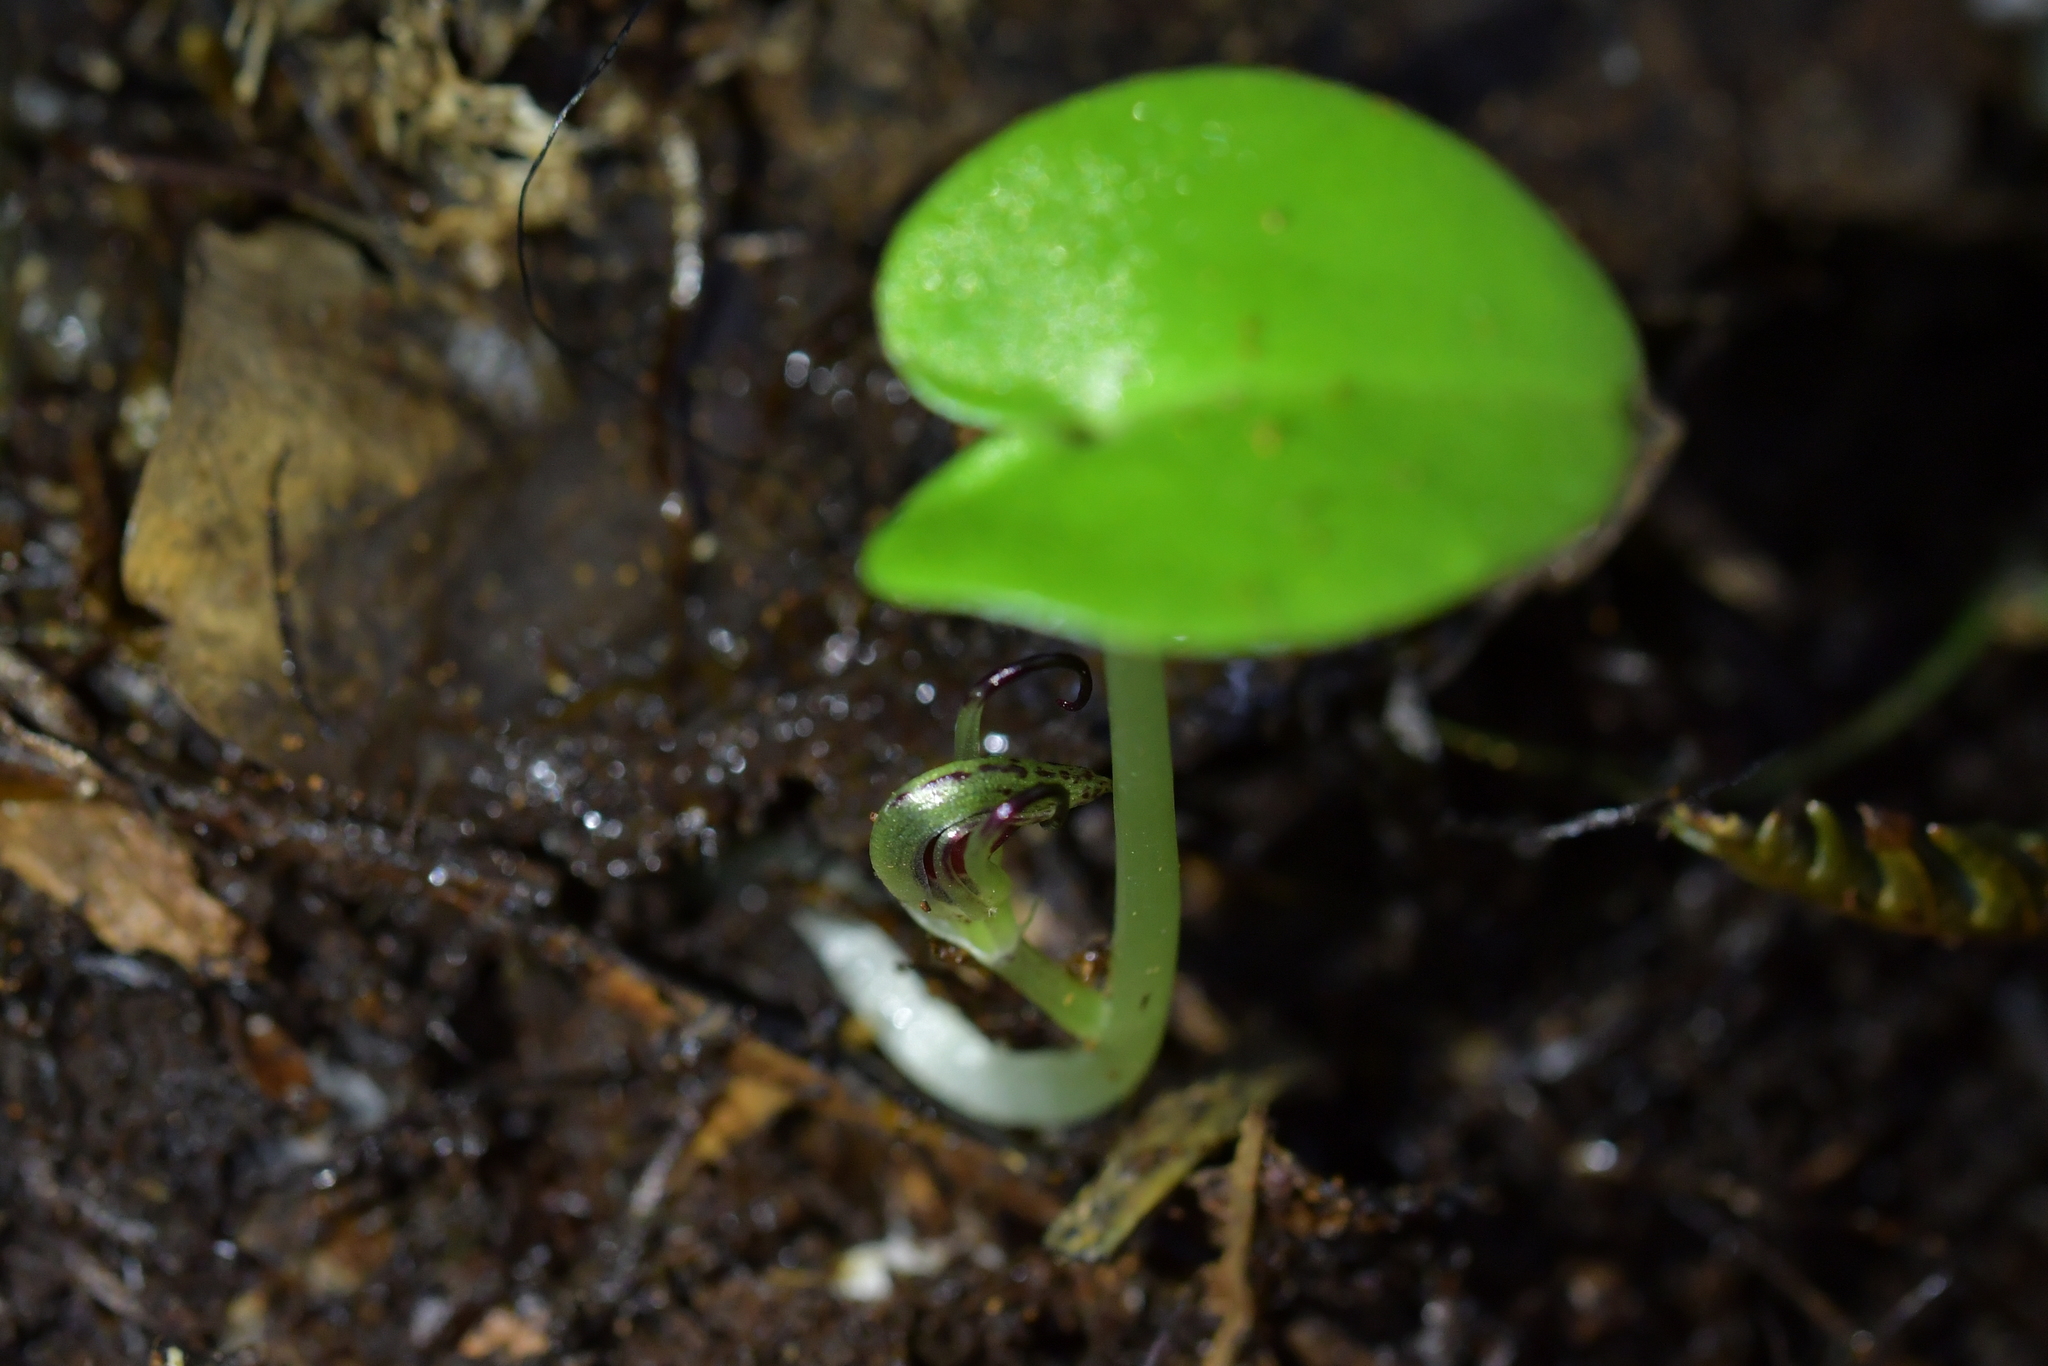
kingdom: Plantae
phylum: Tracheophyta
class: Liliopsida
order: Asparagales
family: Orchidaceae
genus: Corybas
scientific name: Corybas macranthus
